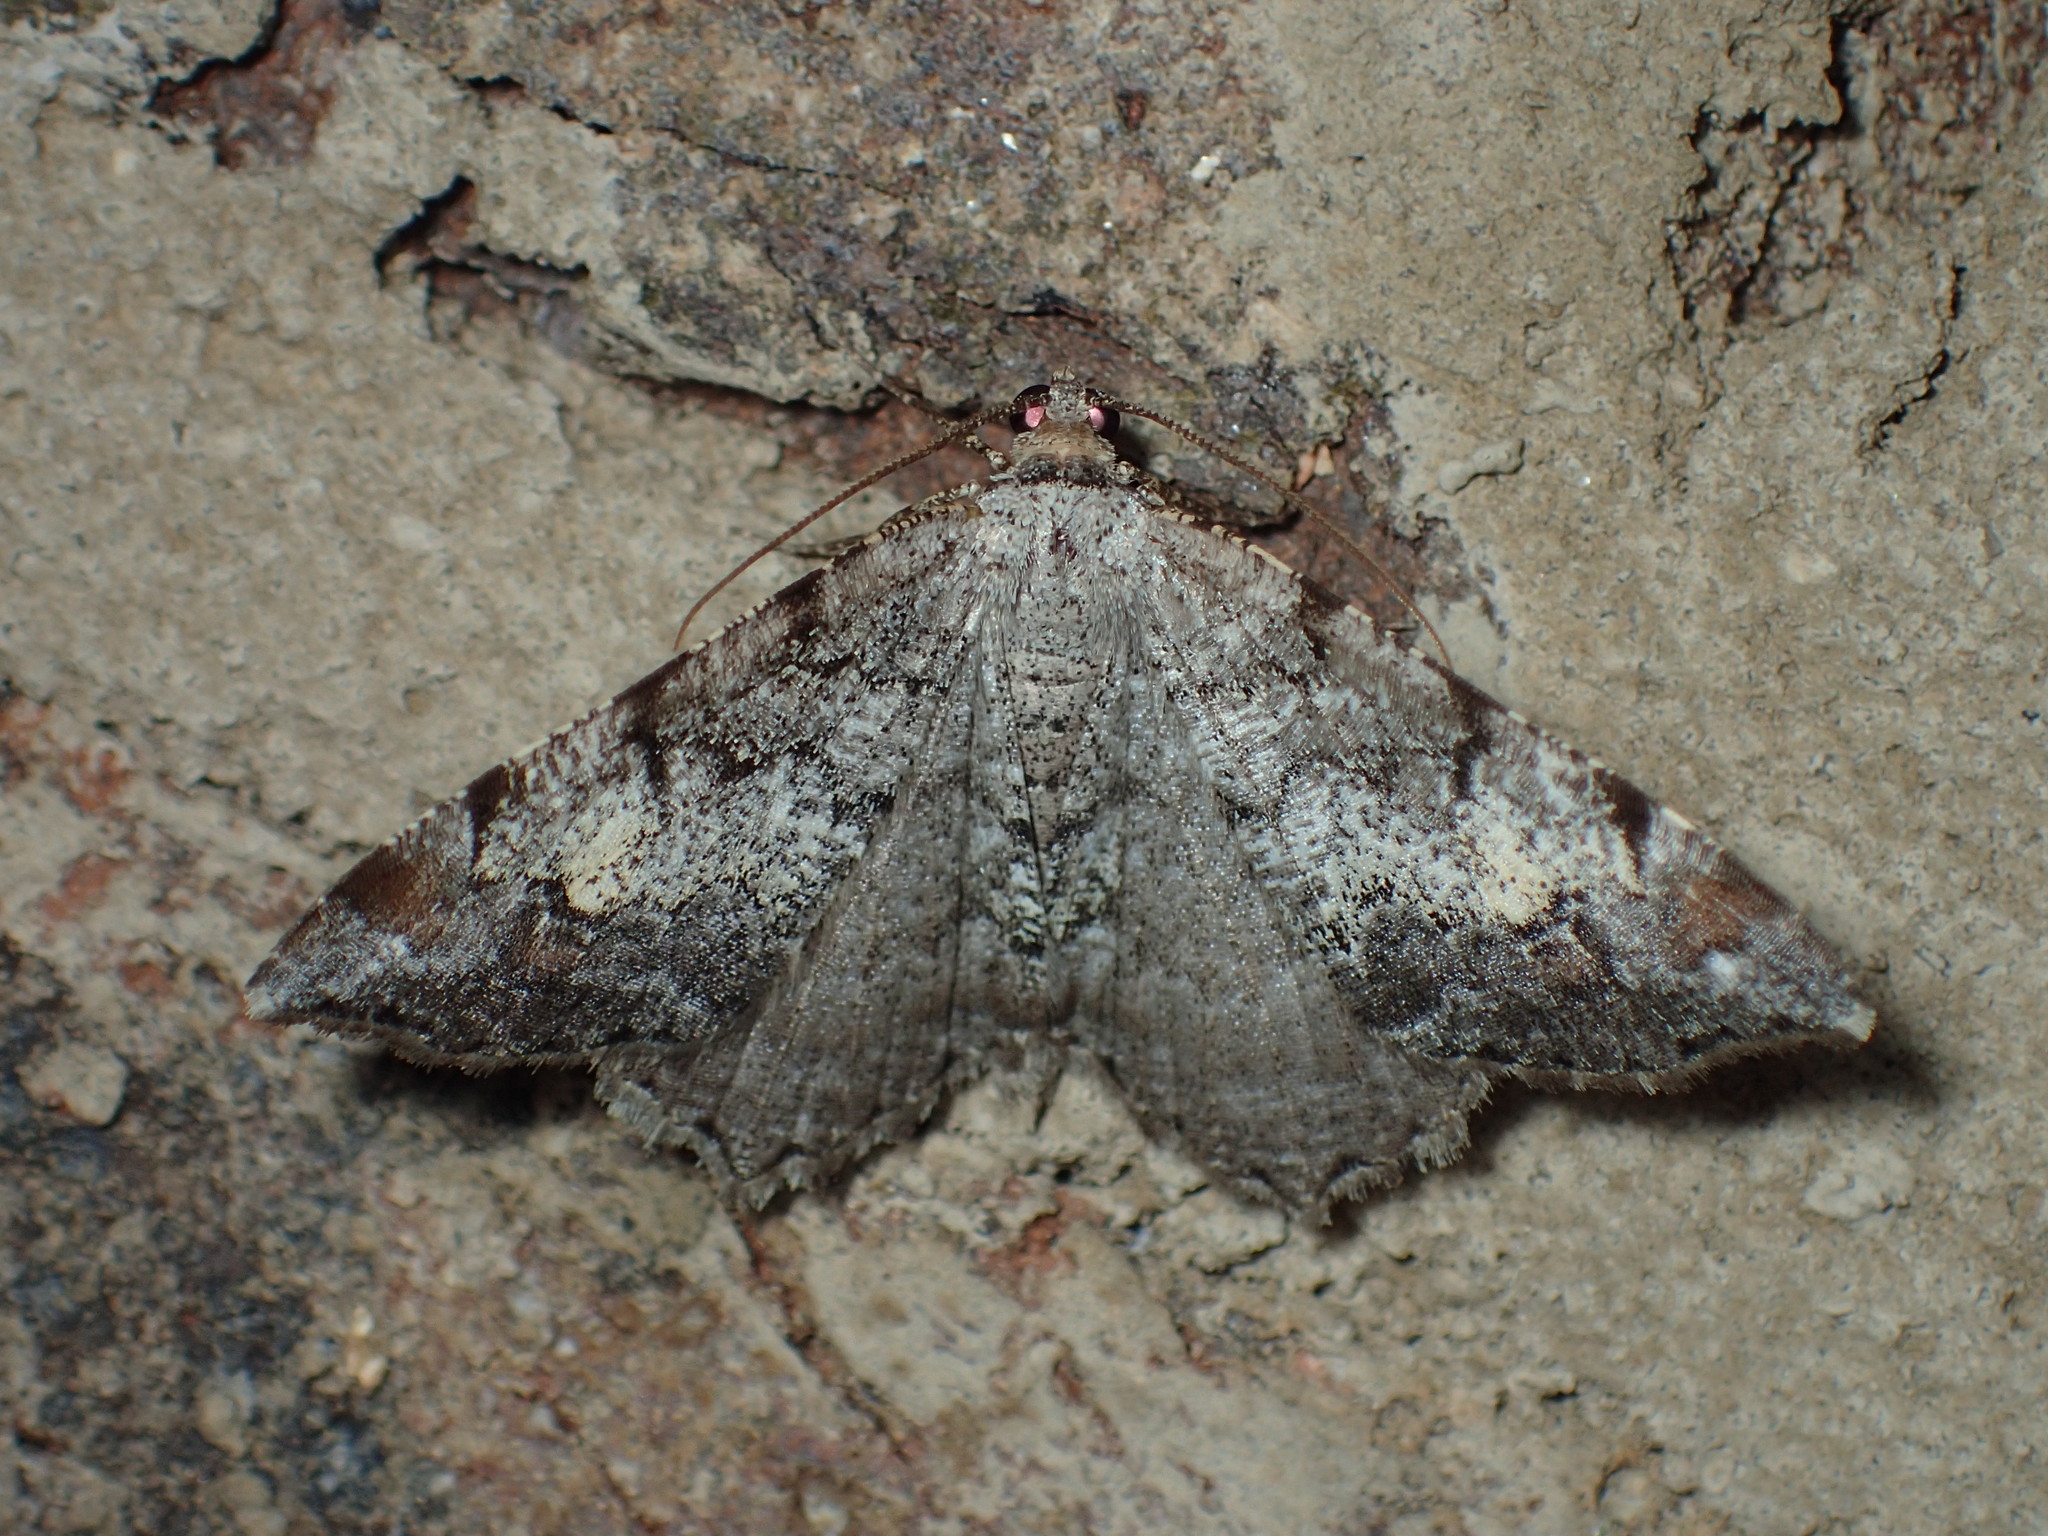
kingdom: Animalia
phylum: Arthropoda
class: Insecta
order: Lepidoptera
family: Geometridae
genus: Macaria
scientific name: Macaria granitata
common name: Granite moth
